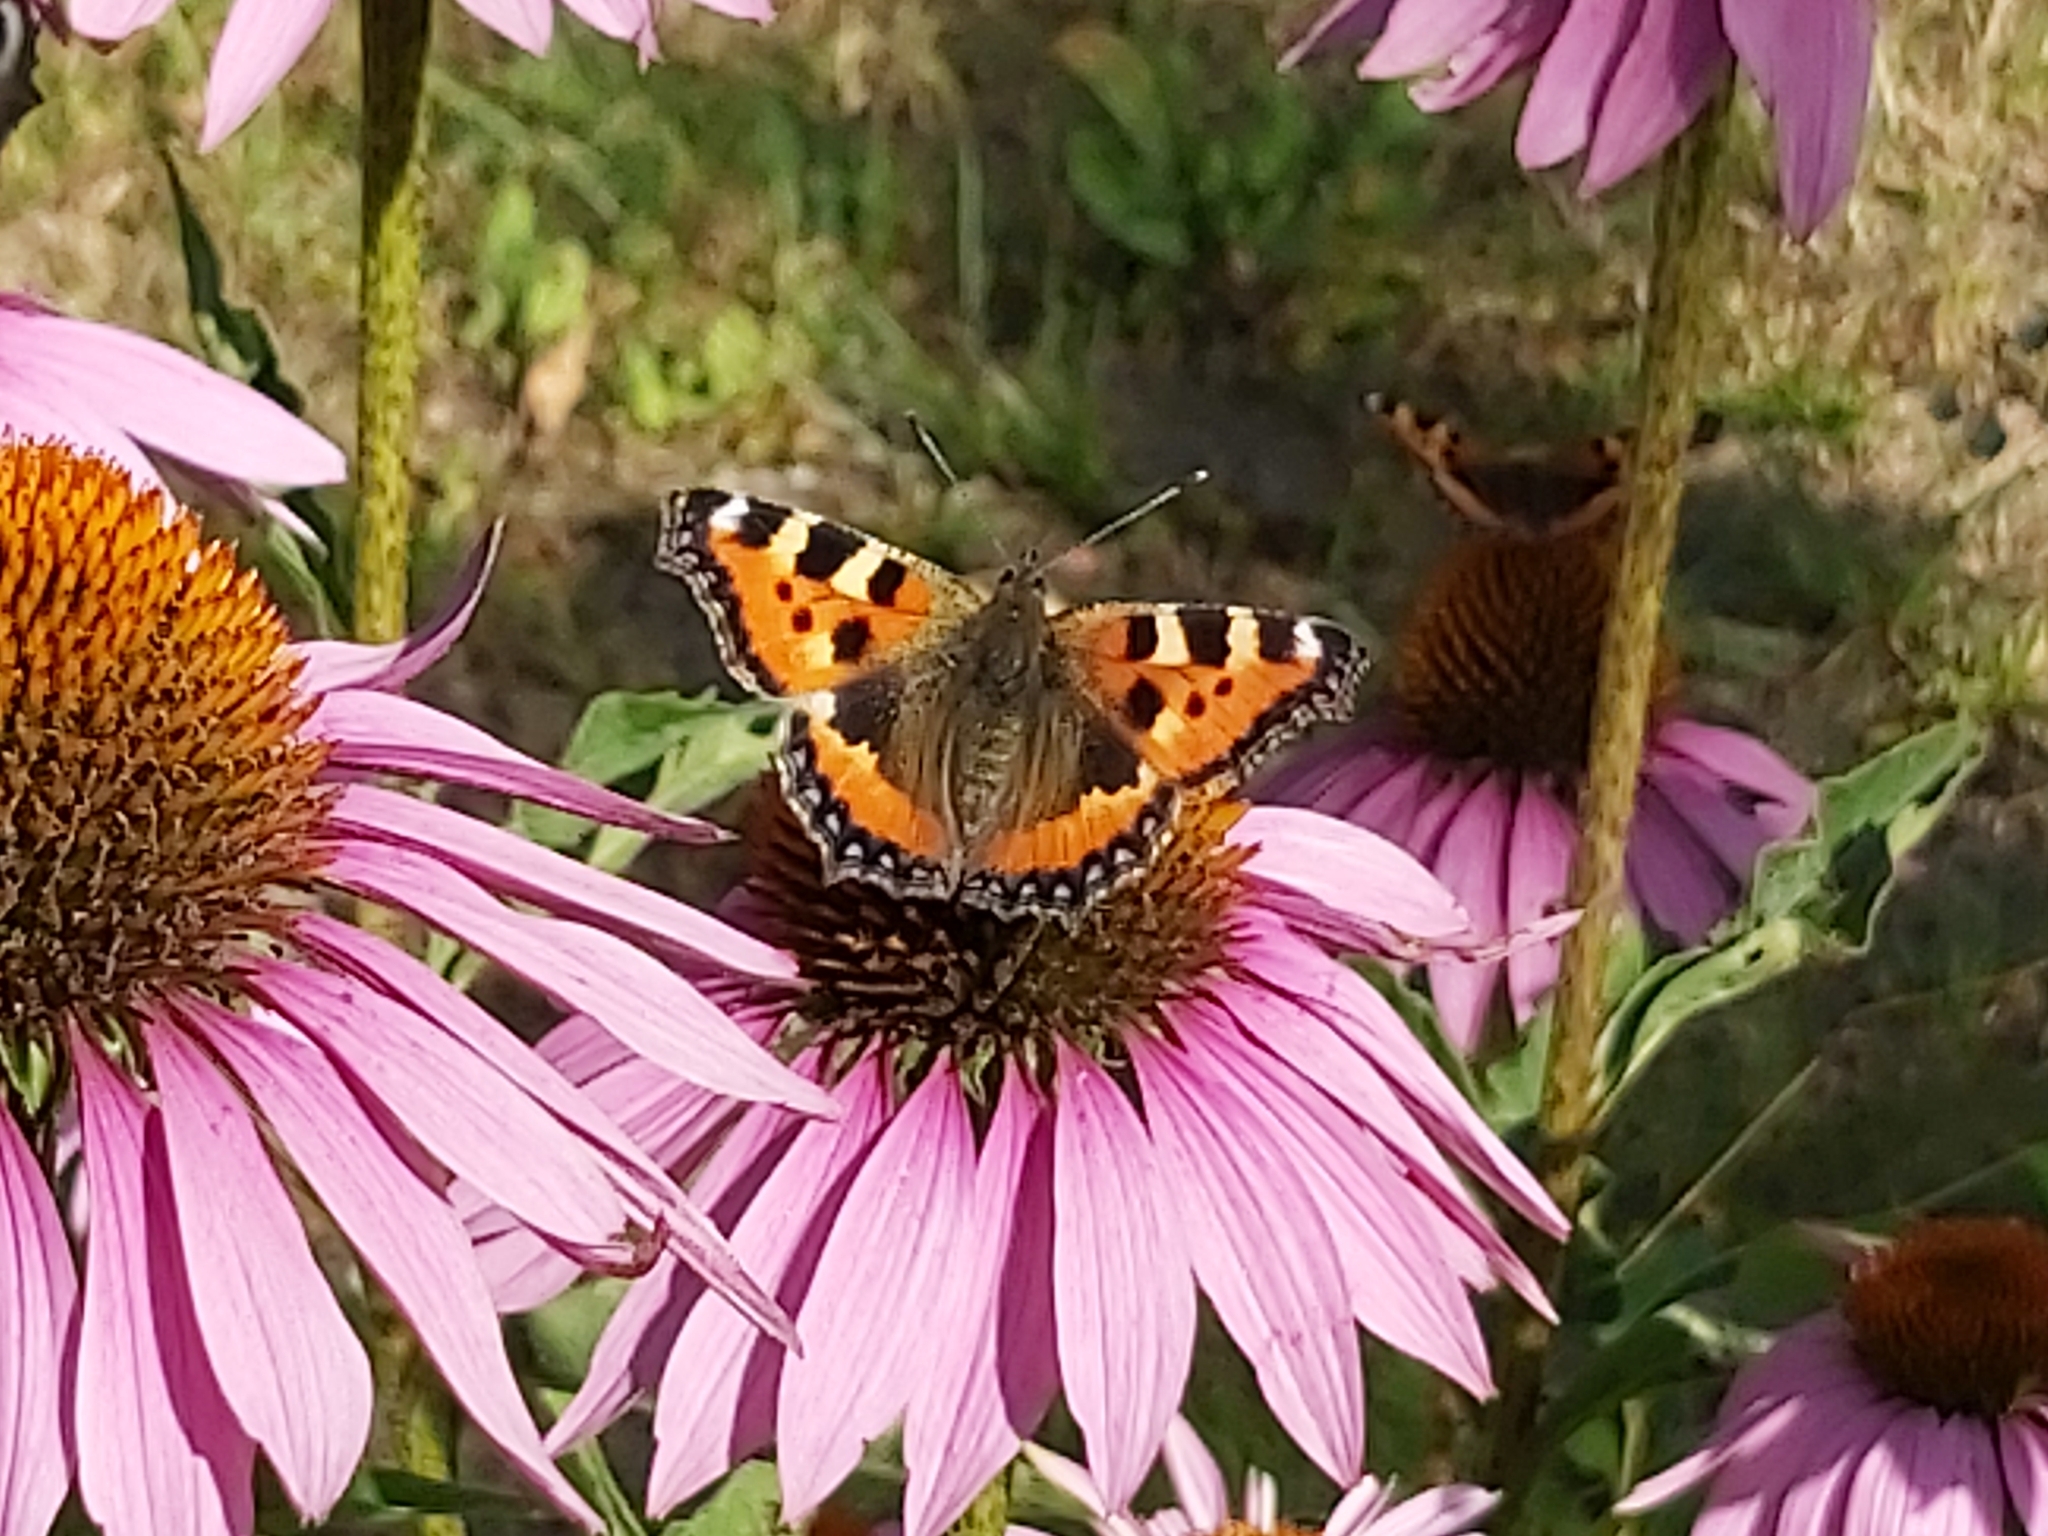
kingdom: Animalia
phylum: Arthropoda
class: Insecta
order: Lepidoptera
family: Nymphalidae
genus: Aglais
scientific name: Aglais urticae
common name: Small tortoiseshell
